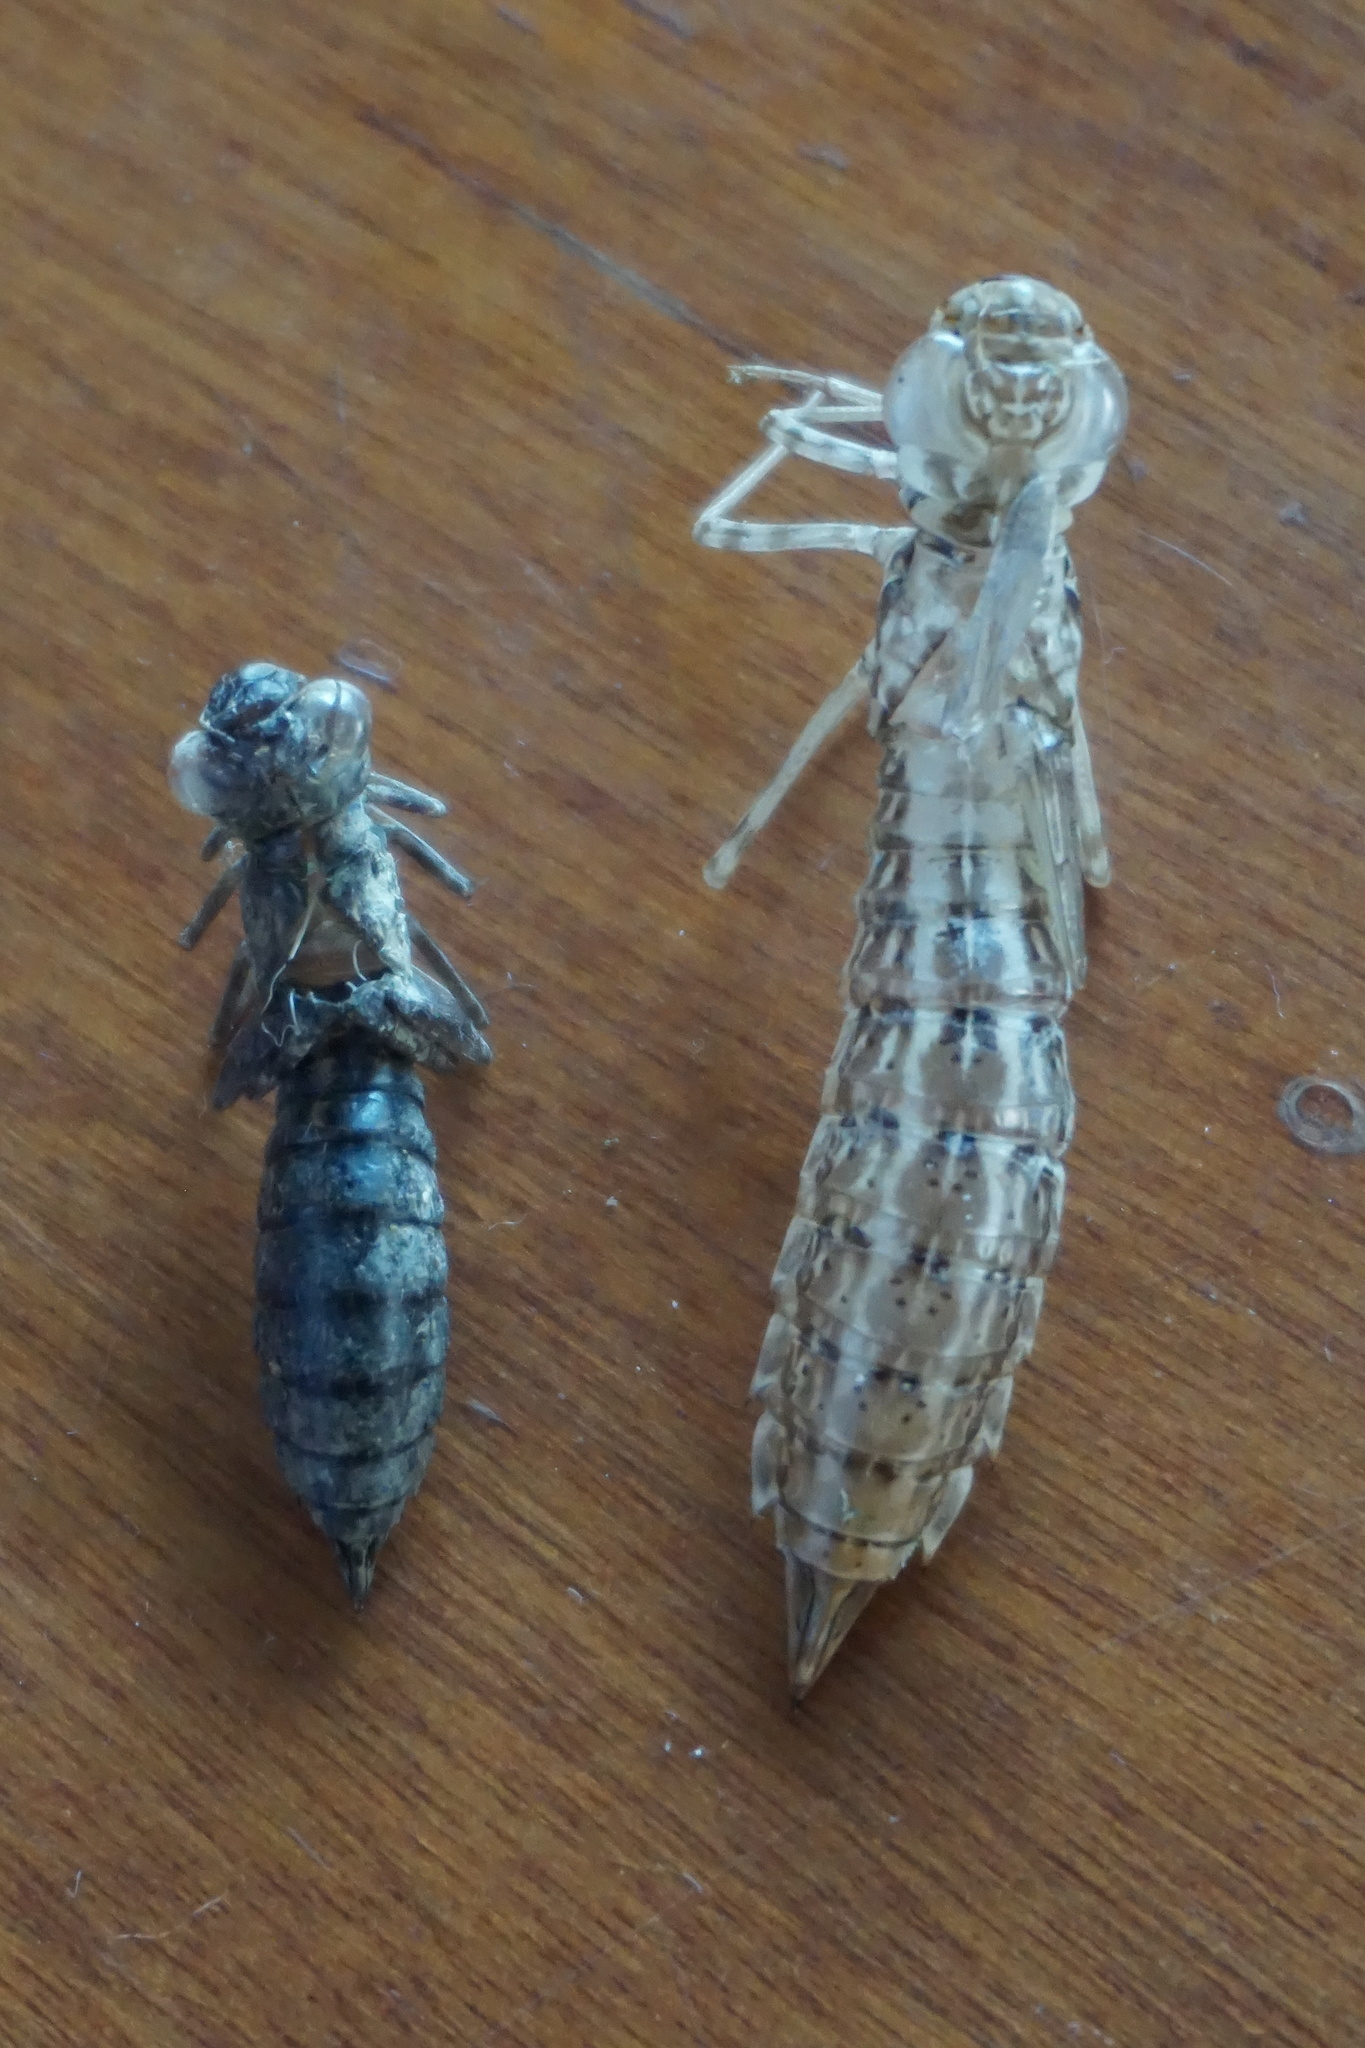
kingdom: Animalia
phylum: Arthropoda
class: Insecta
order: Odonata
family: Aeshnidae
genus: Aeshna
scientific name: Aeshna affinis
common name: Southern migrant hawker
